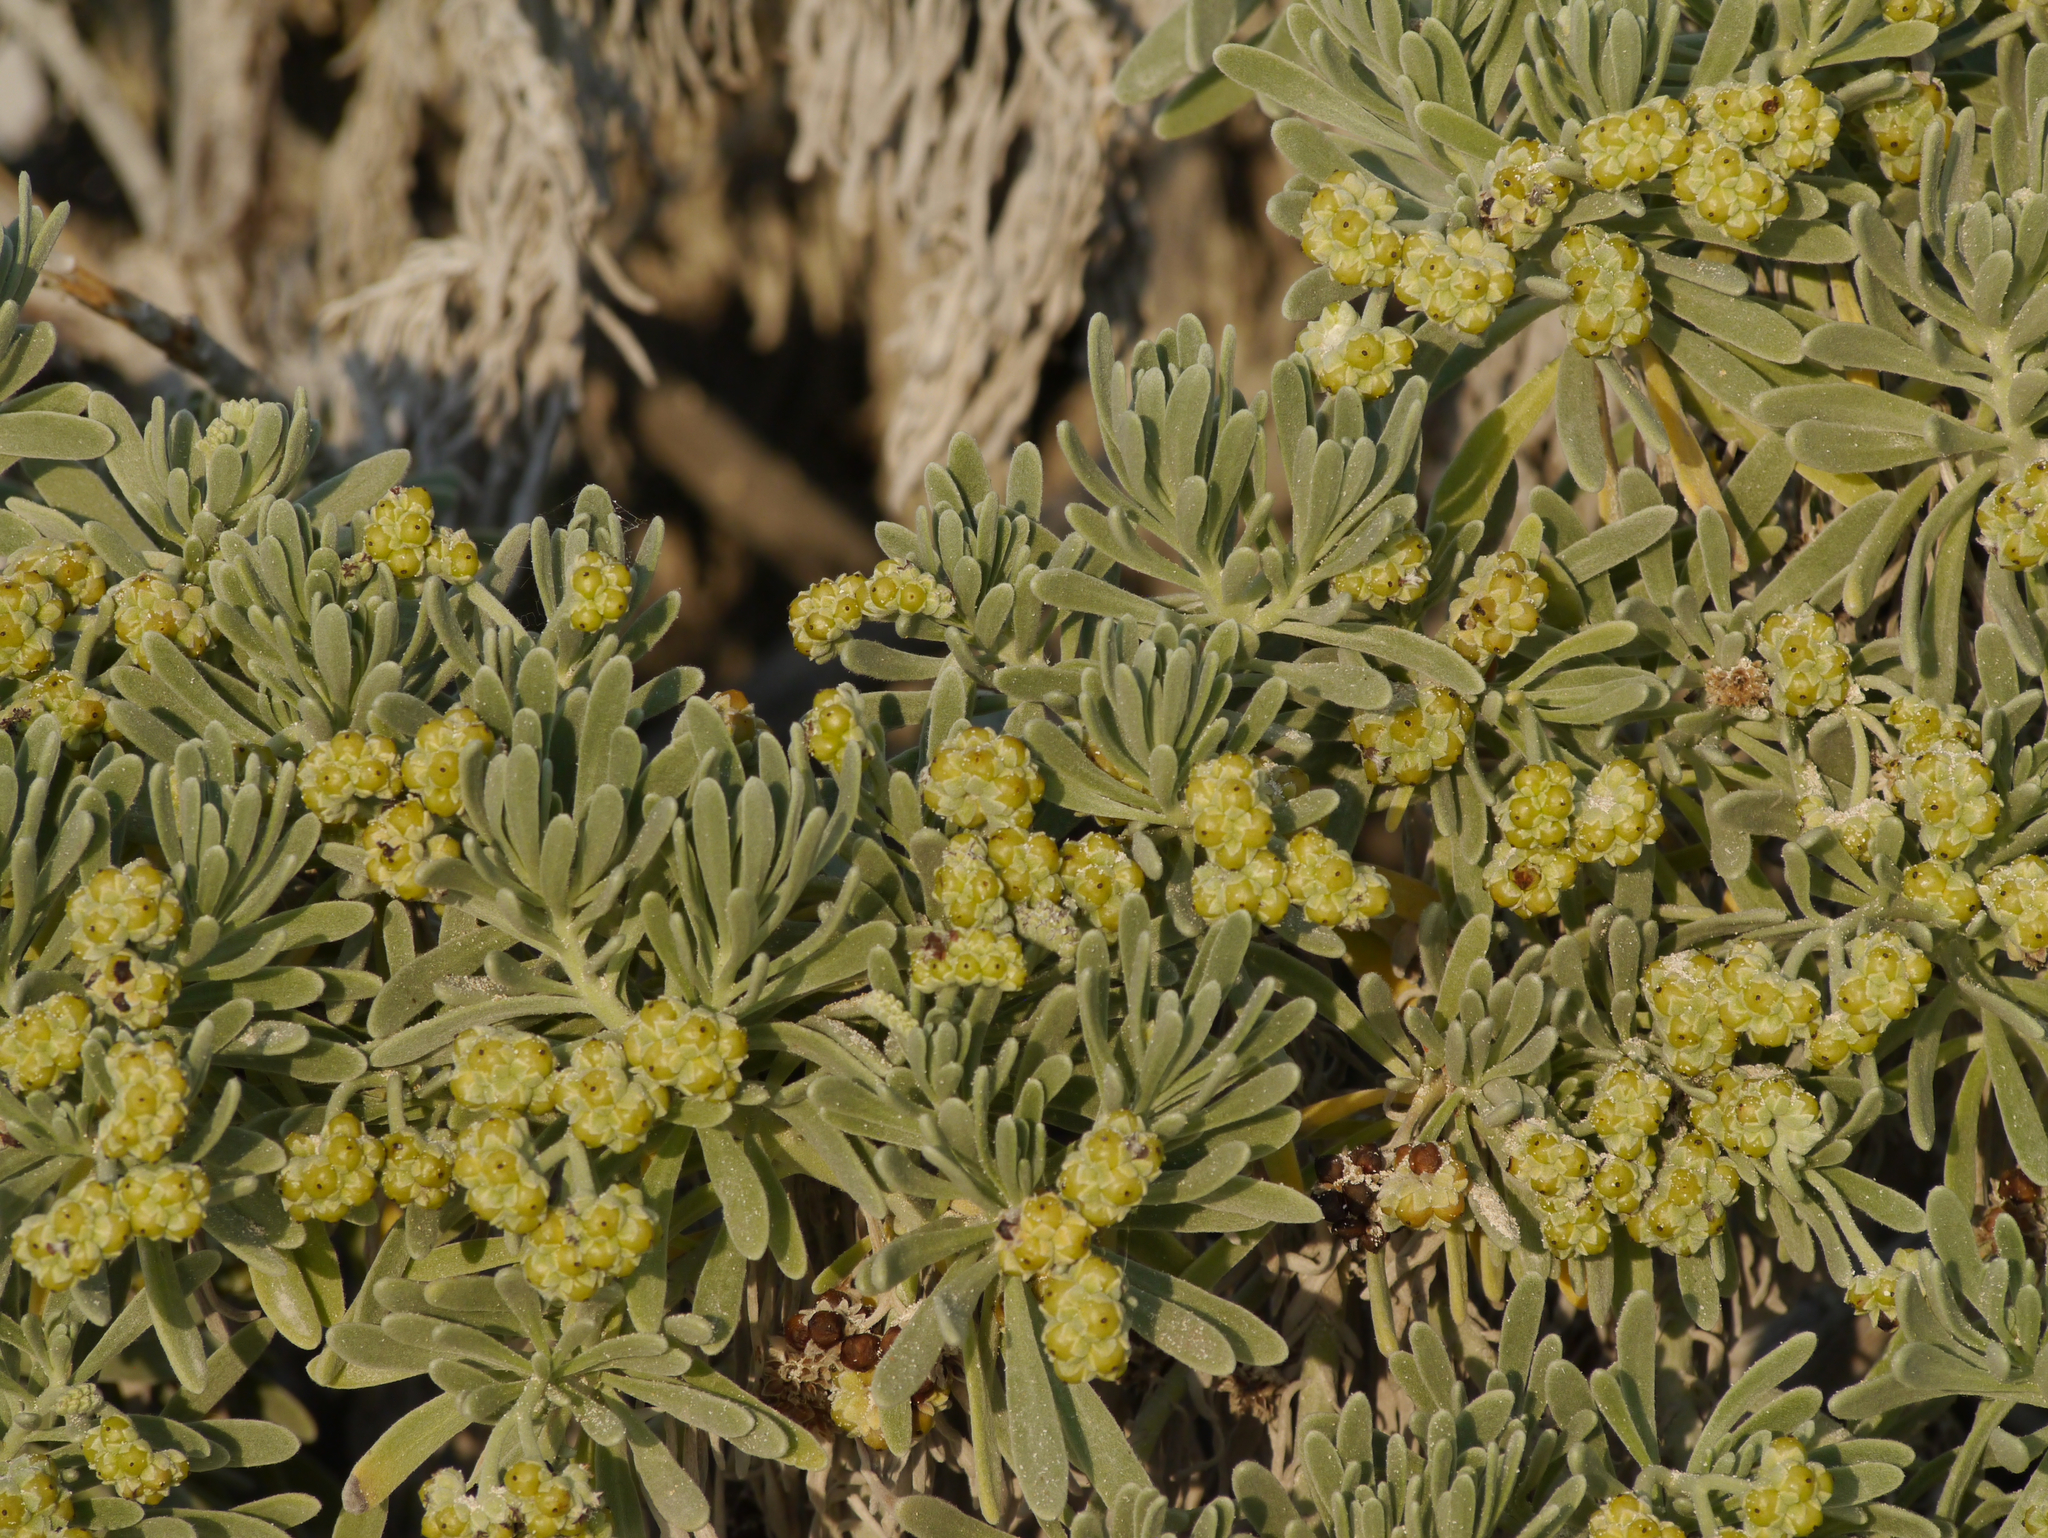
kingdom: Plantae
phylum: Tracheophyta
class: Magnoliopsida
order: Boraginales
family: Heliotropiaceae
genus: Tournefortia
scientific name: Tournefortia gnaphalodes
